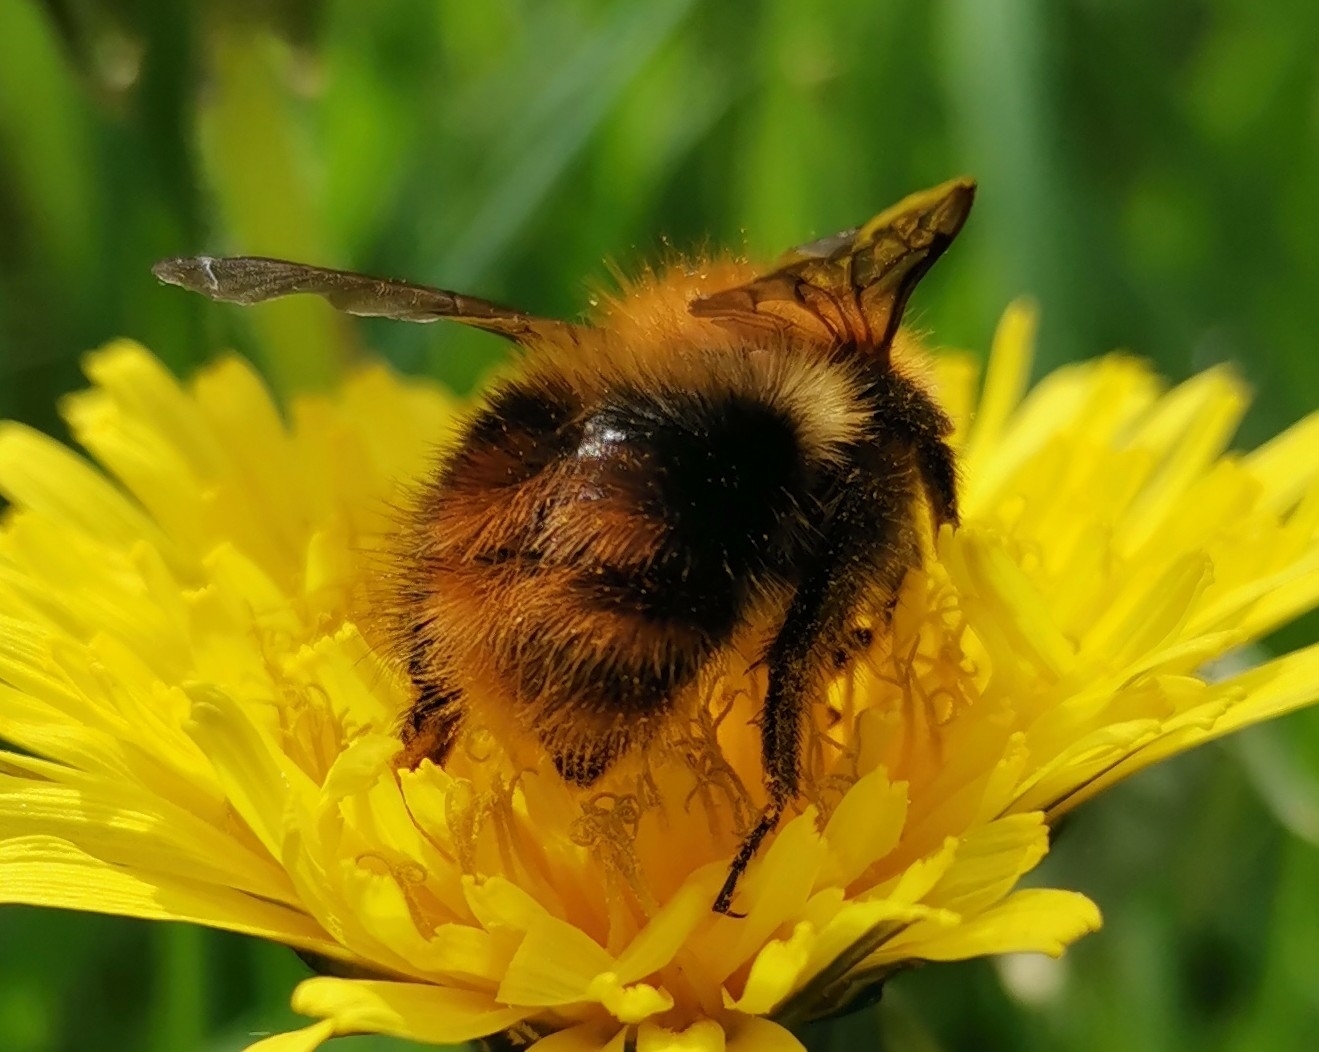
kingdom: Animalia
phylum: Arthropoda
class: Insecta
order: Hymenoptera
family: Apidae
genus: Bombus
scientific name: Bombus pascuorum
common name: Common carder bee
